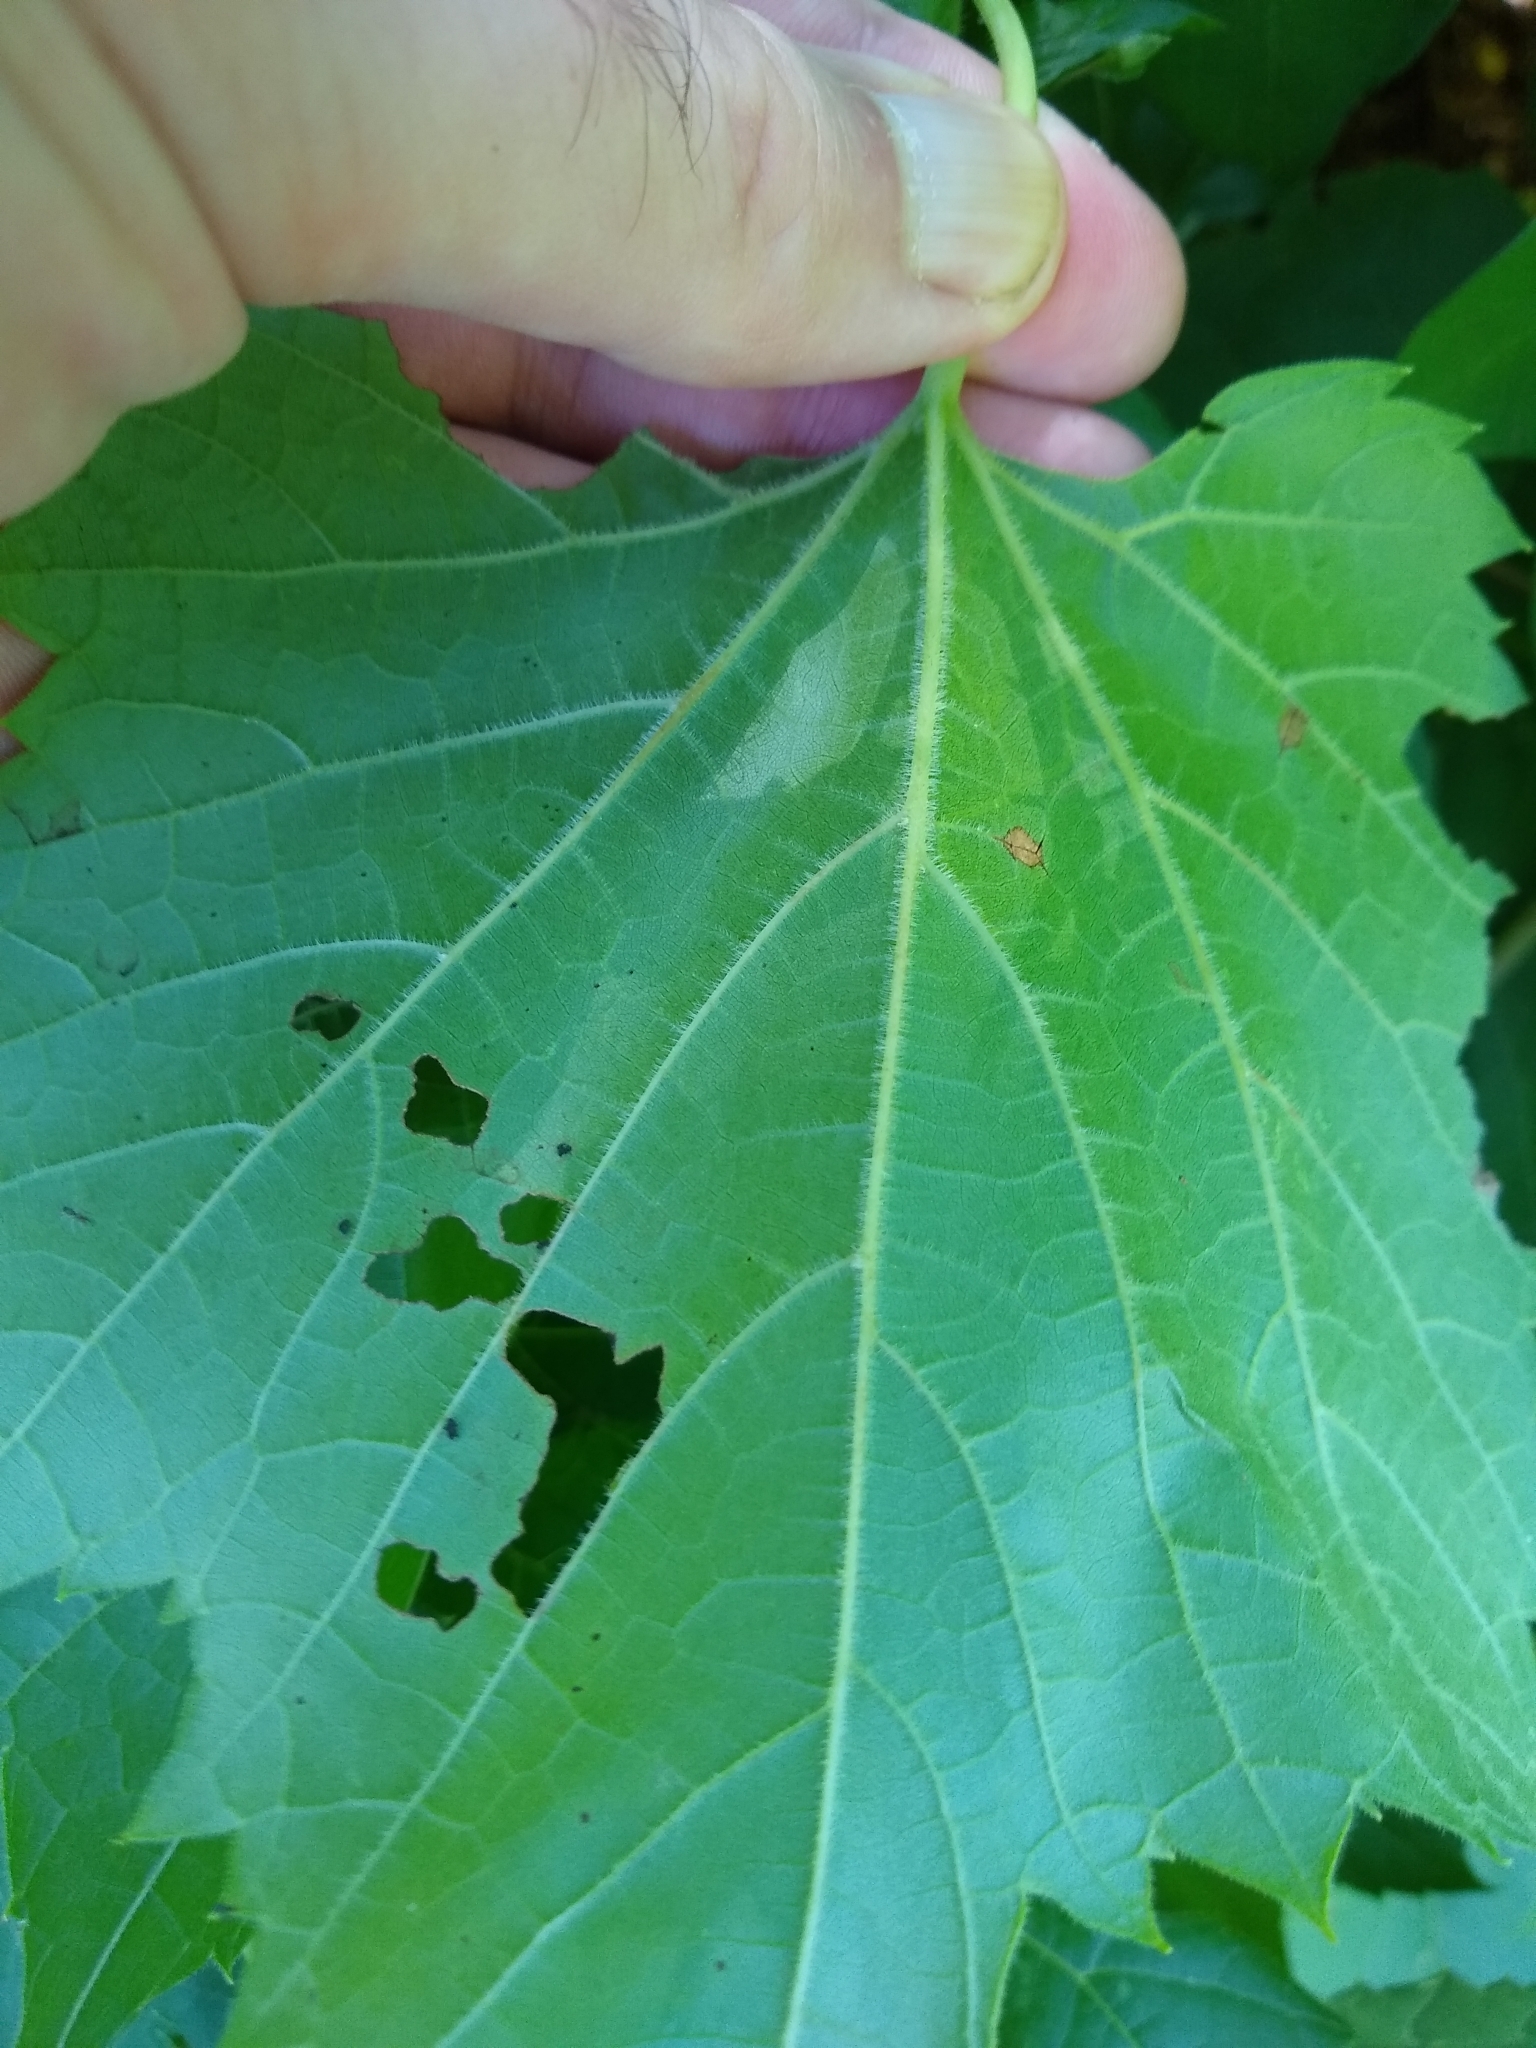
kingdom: Animalia
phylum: Arthropoda
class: Insecta
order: Lepidoptera
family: Gracillariidae
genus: Phyllocnistis
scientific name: Phyllocnistis vitifoliella
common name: Grape leaf-miner moth
